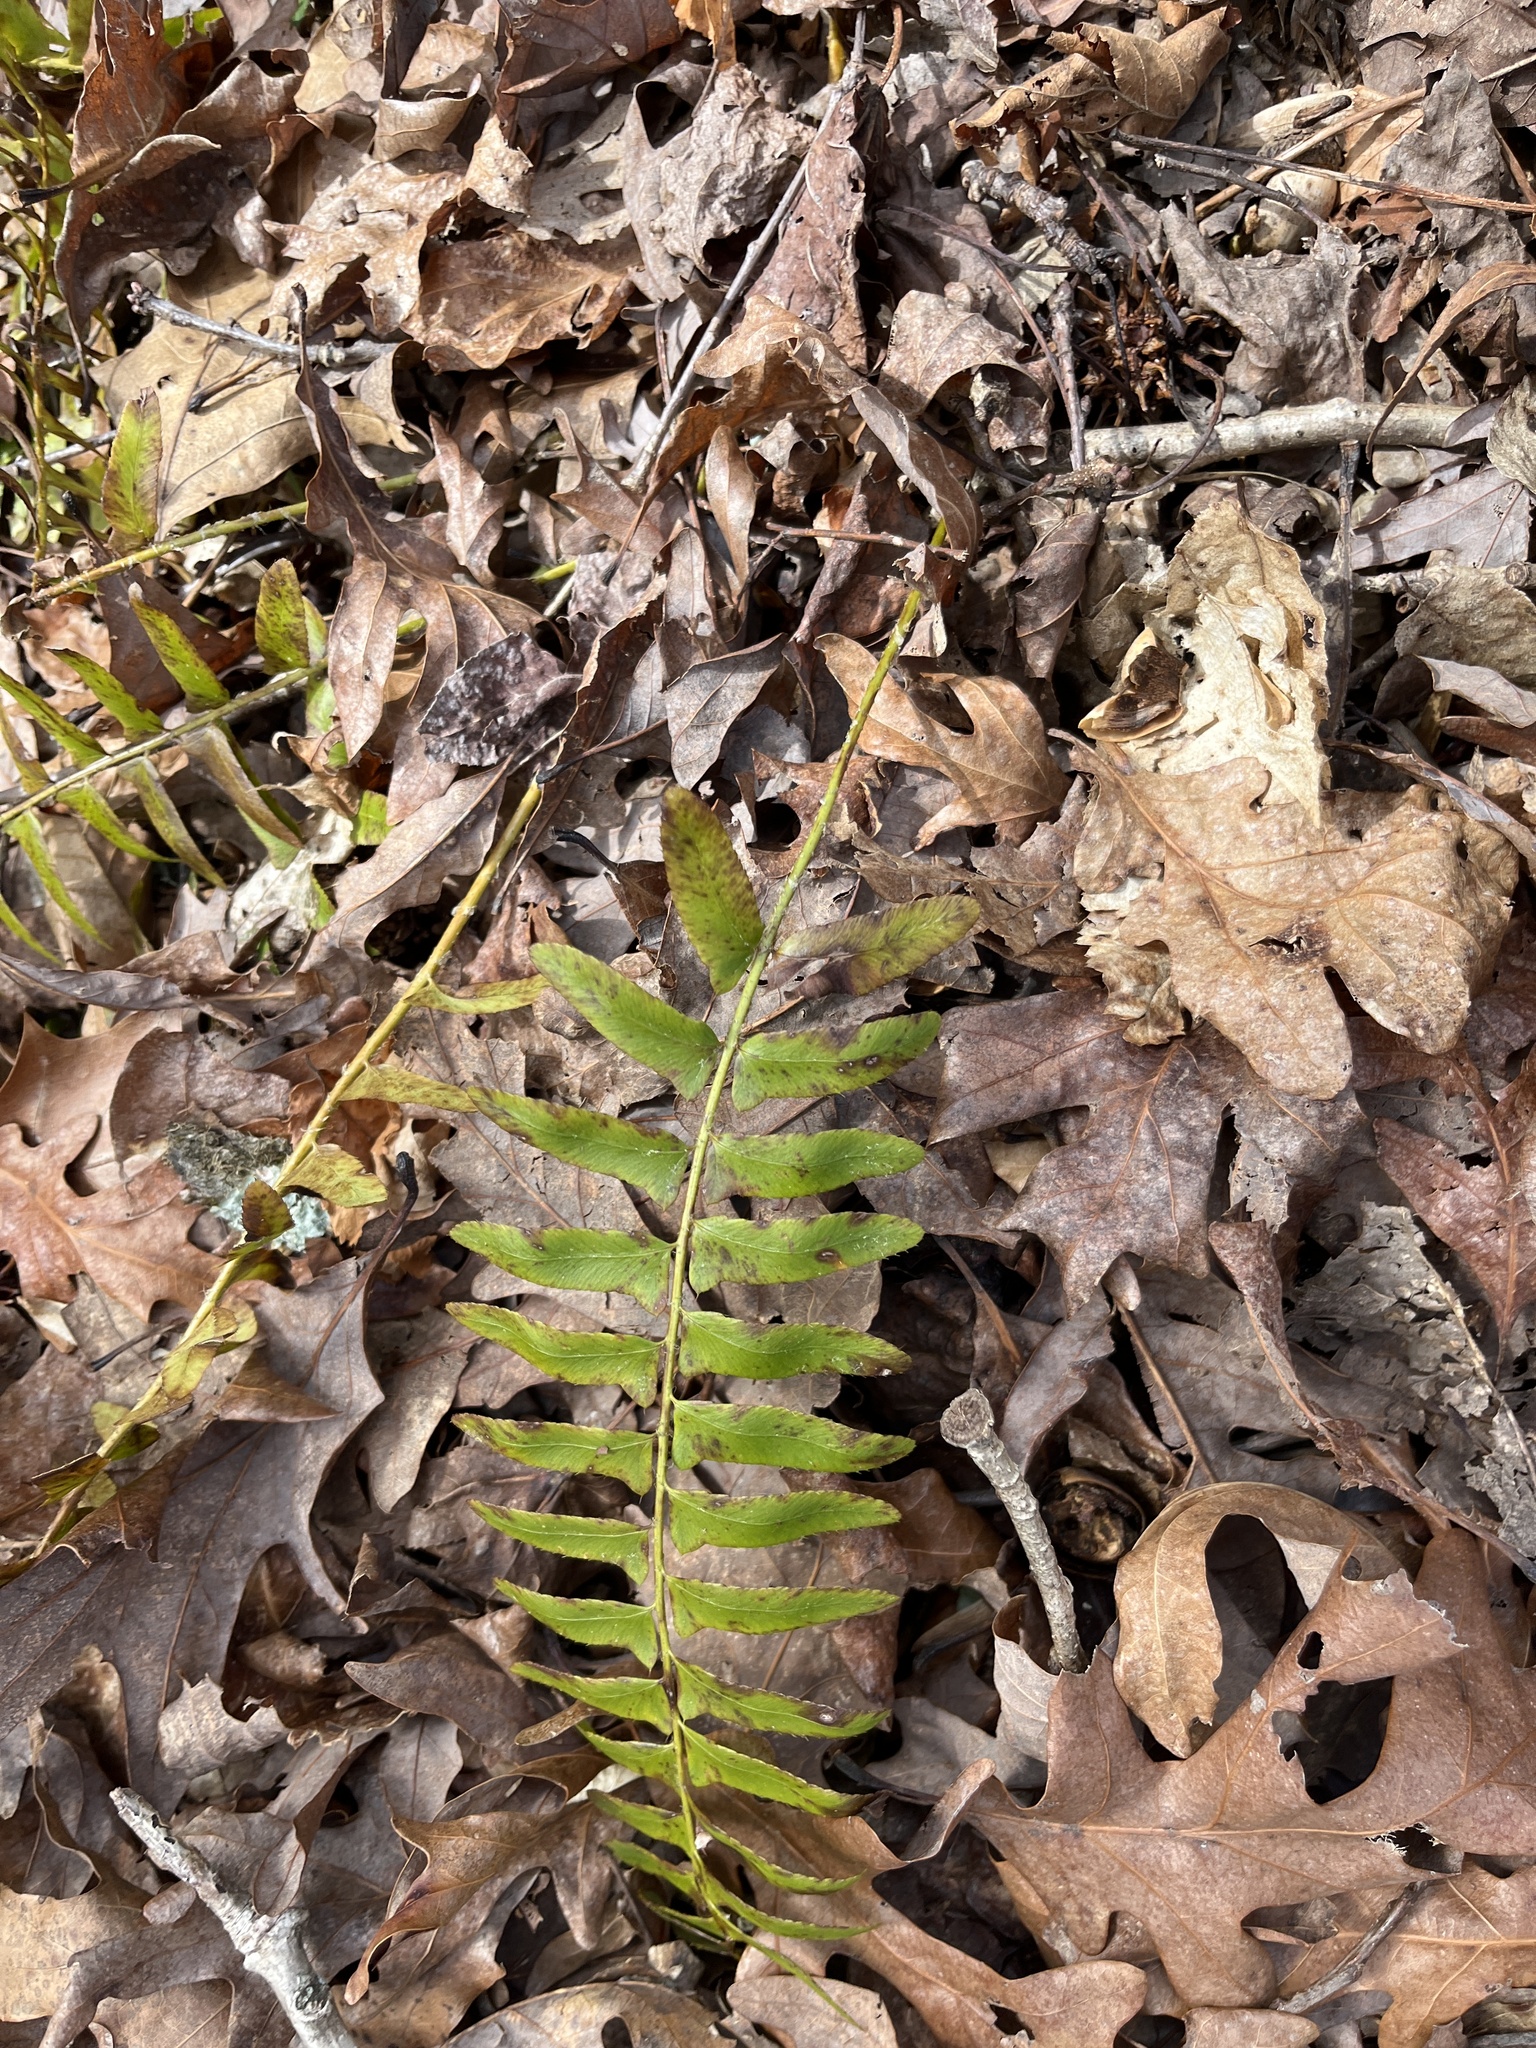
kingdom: Plantae
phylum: Tracheophyta
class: Polypodiopsida
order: Polypodiales
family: Dryopteridaceae
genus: Polystichum
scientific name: Polystichum acrostichoides
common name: Christmas fern
